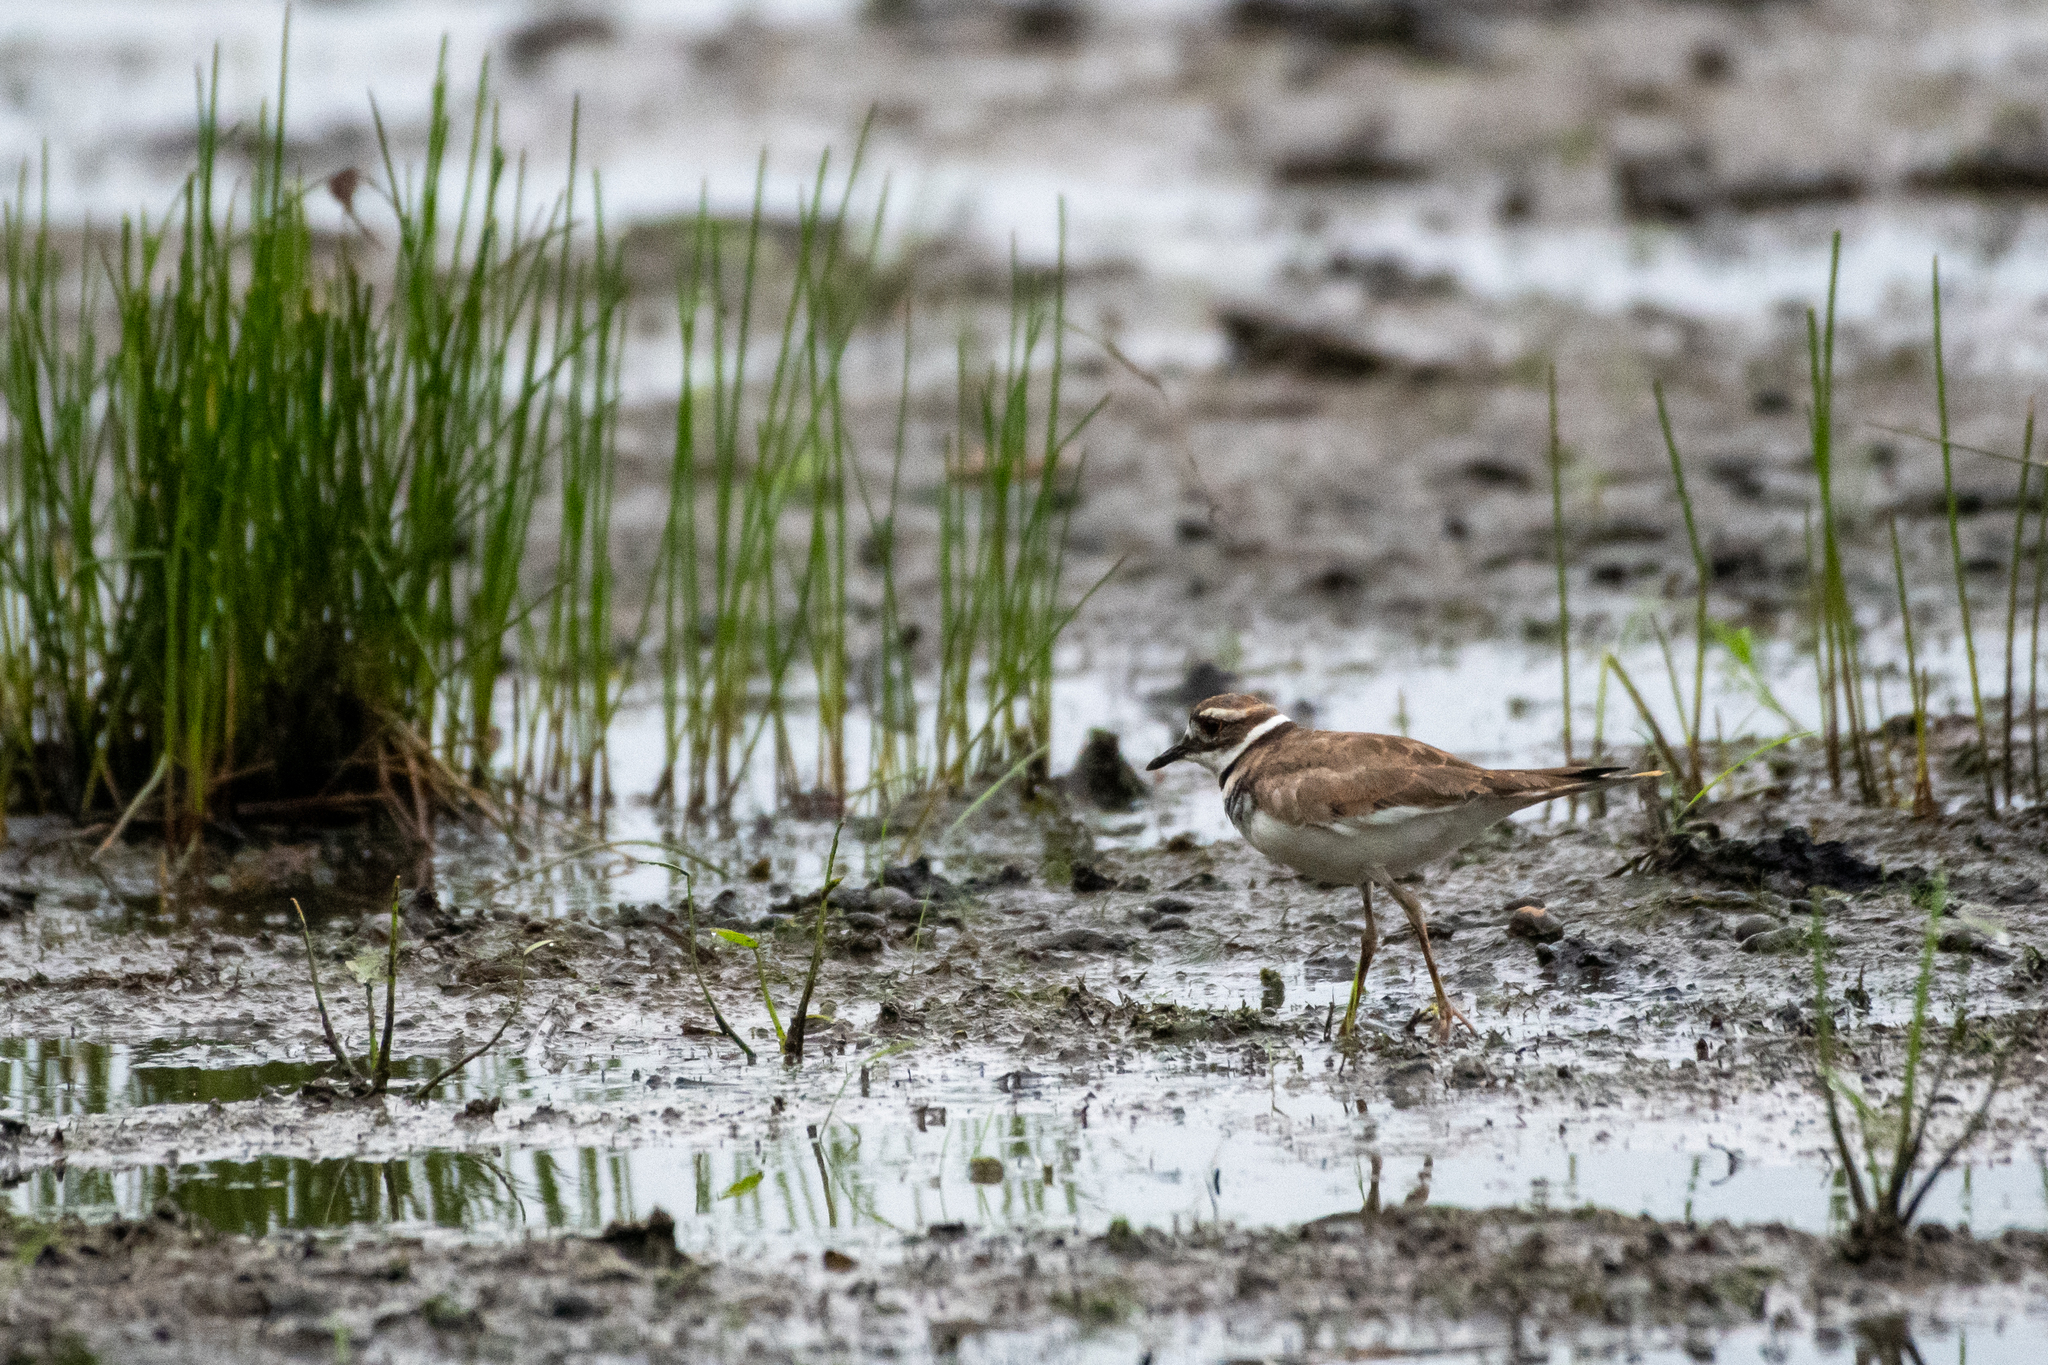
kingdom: Animalia
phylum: Chordata
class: Aves
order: Charadriiformes
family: Charadriidae
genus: Charadrius
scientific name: Charadrius vociferus
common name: Killdeer
